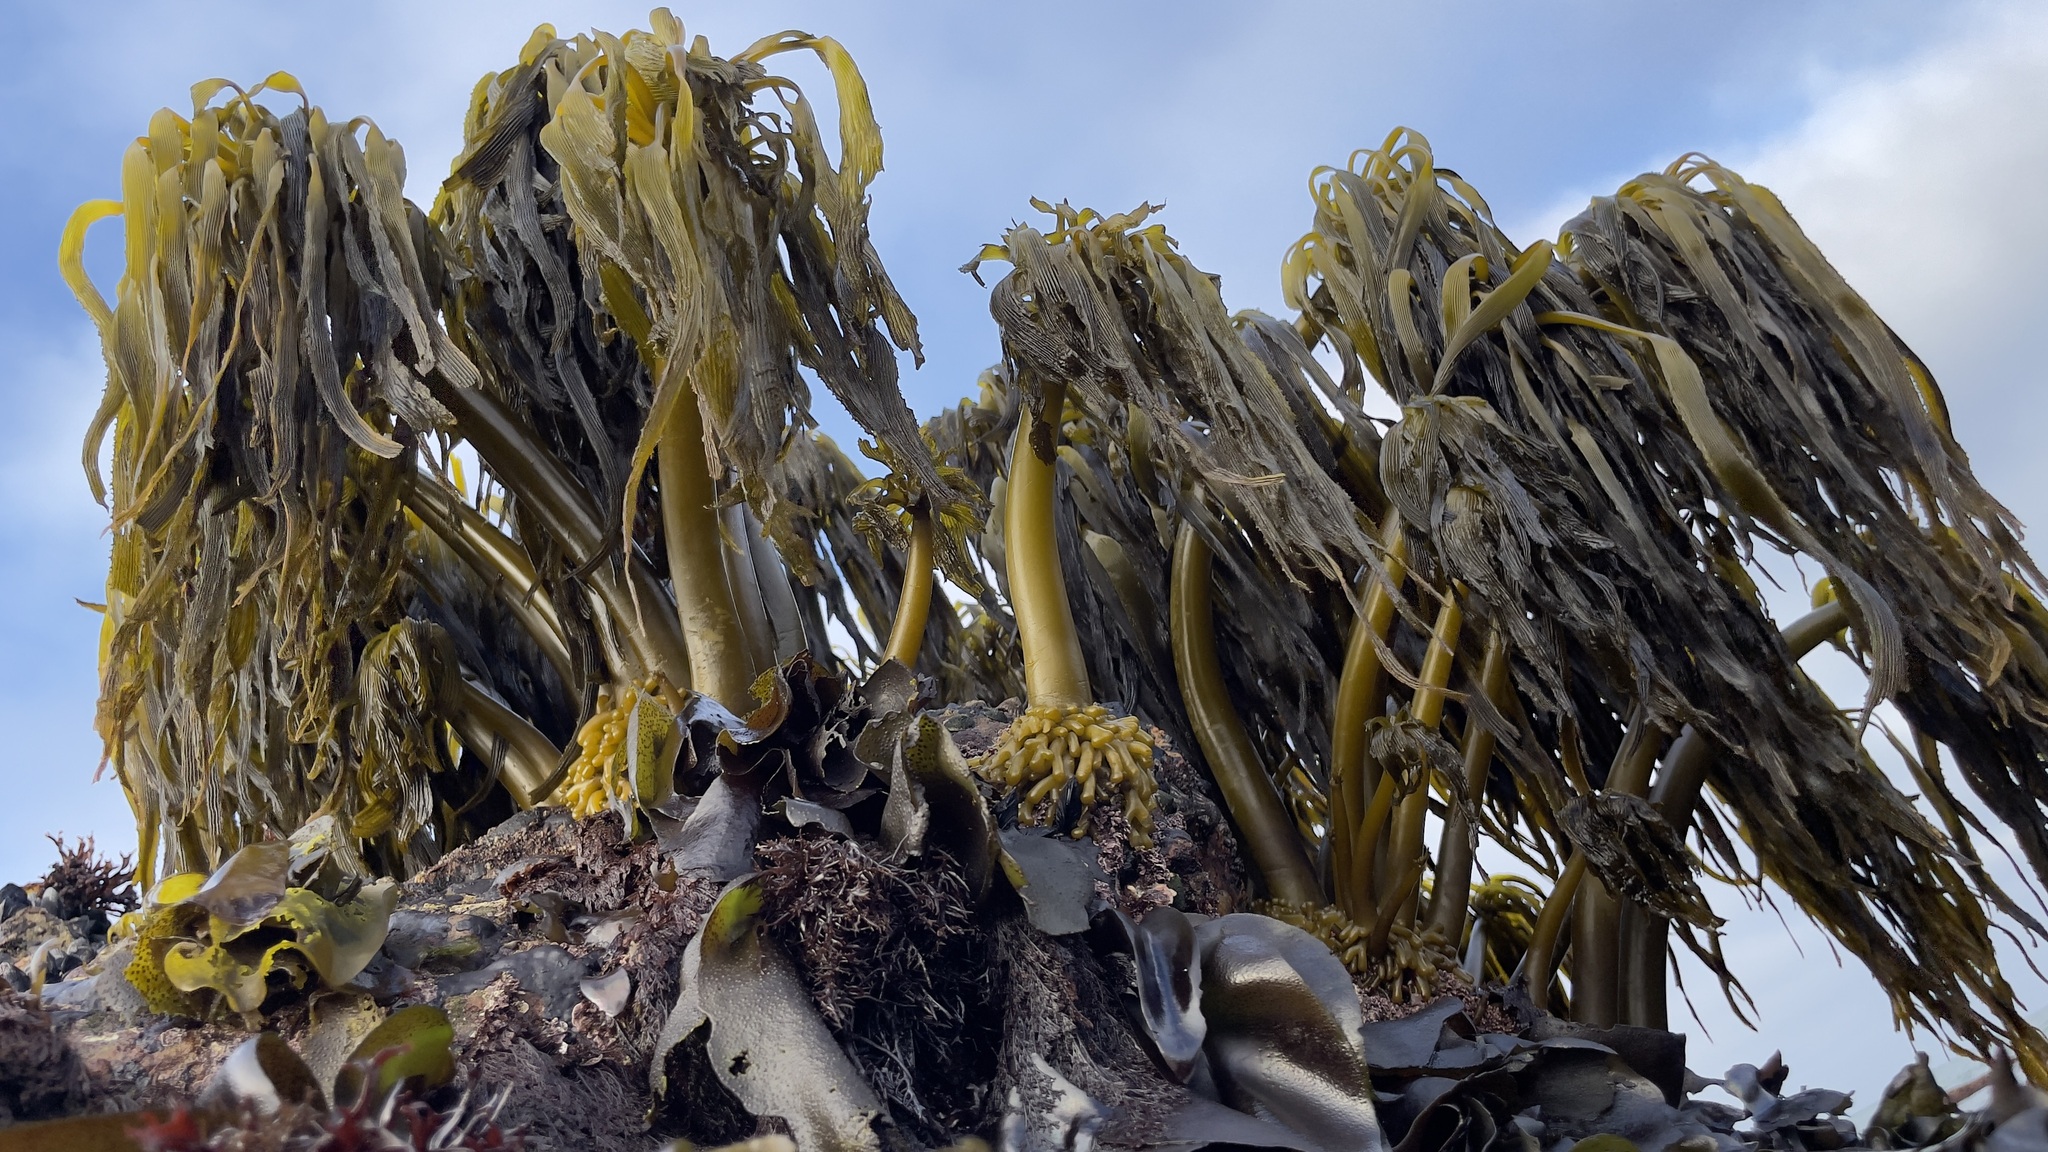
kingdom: Chromista
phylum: Ochrophyta
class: Phaeophyceae
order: Laminariales
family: Laminariaceae
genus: Postelsia
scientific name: Postelsia palmiformis
